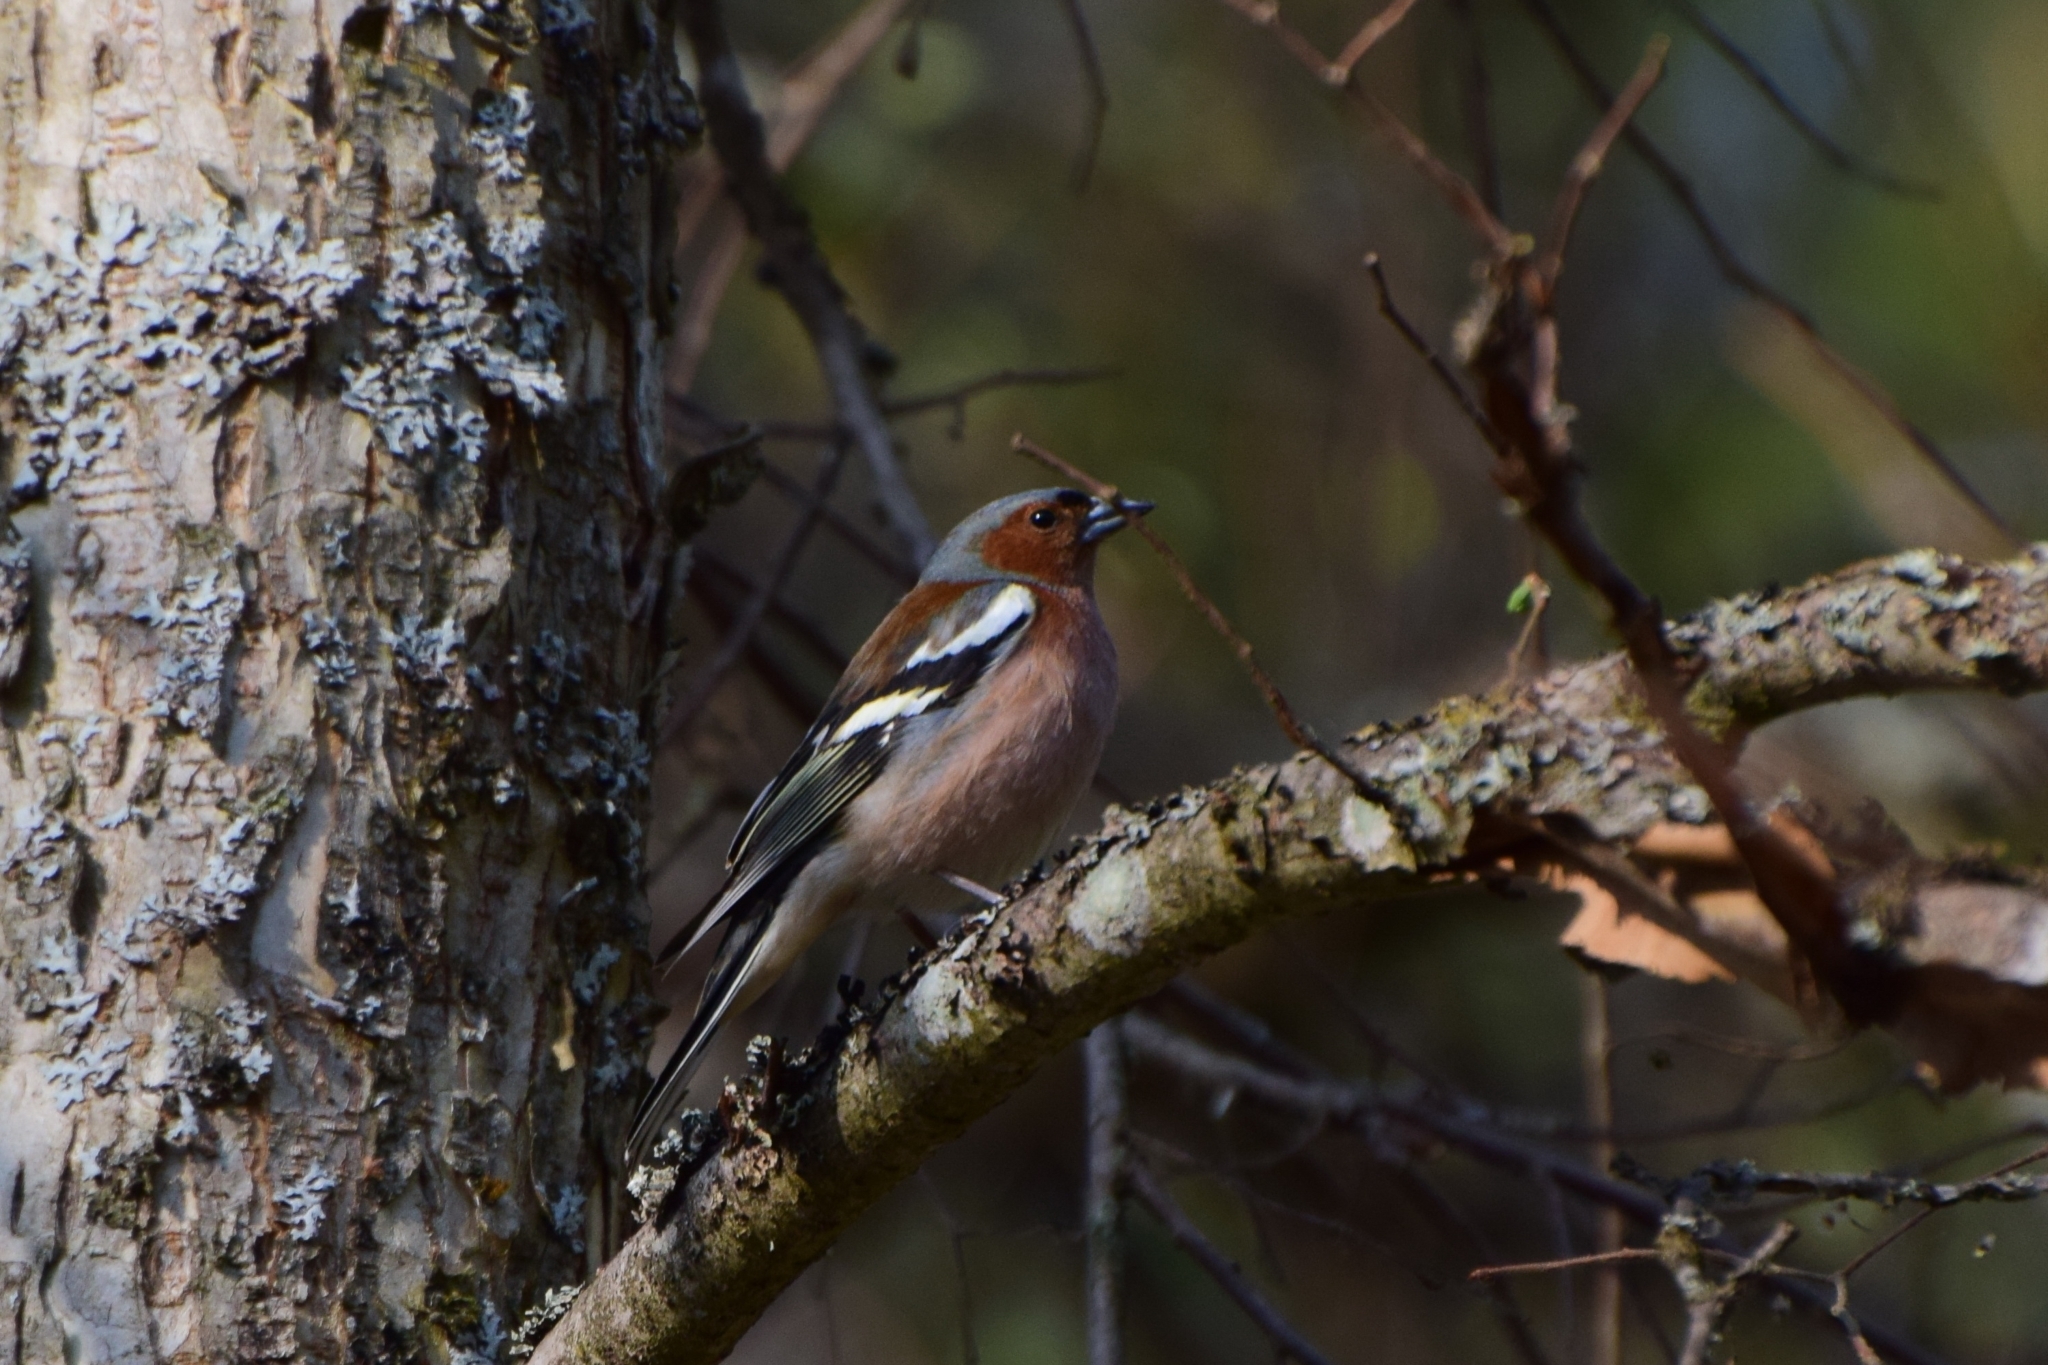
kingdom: Animalia
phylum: Chordata
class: Aves
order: Passeriformes
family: Fringillidae
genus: Fringilla
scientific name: Fringilla coelebs
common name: Common chaffinch
